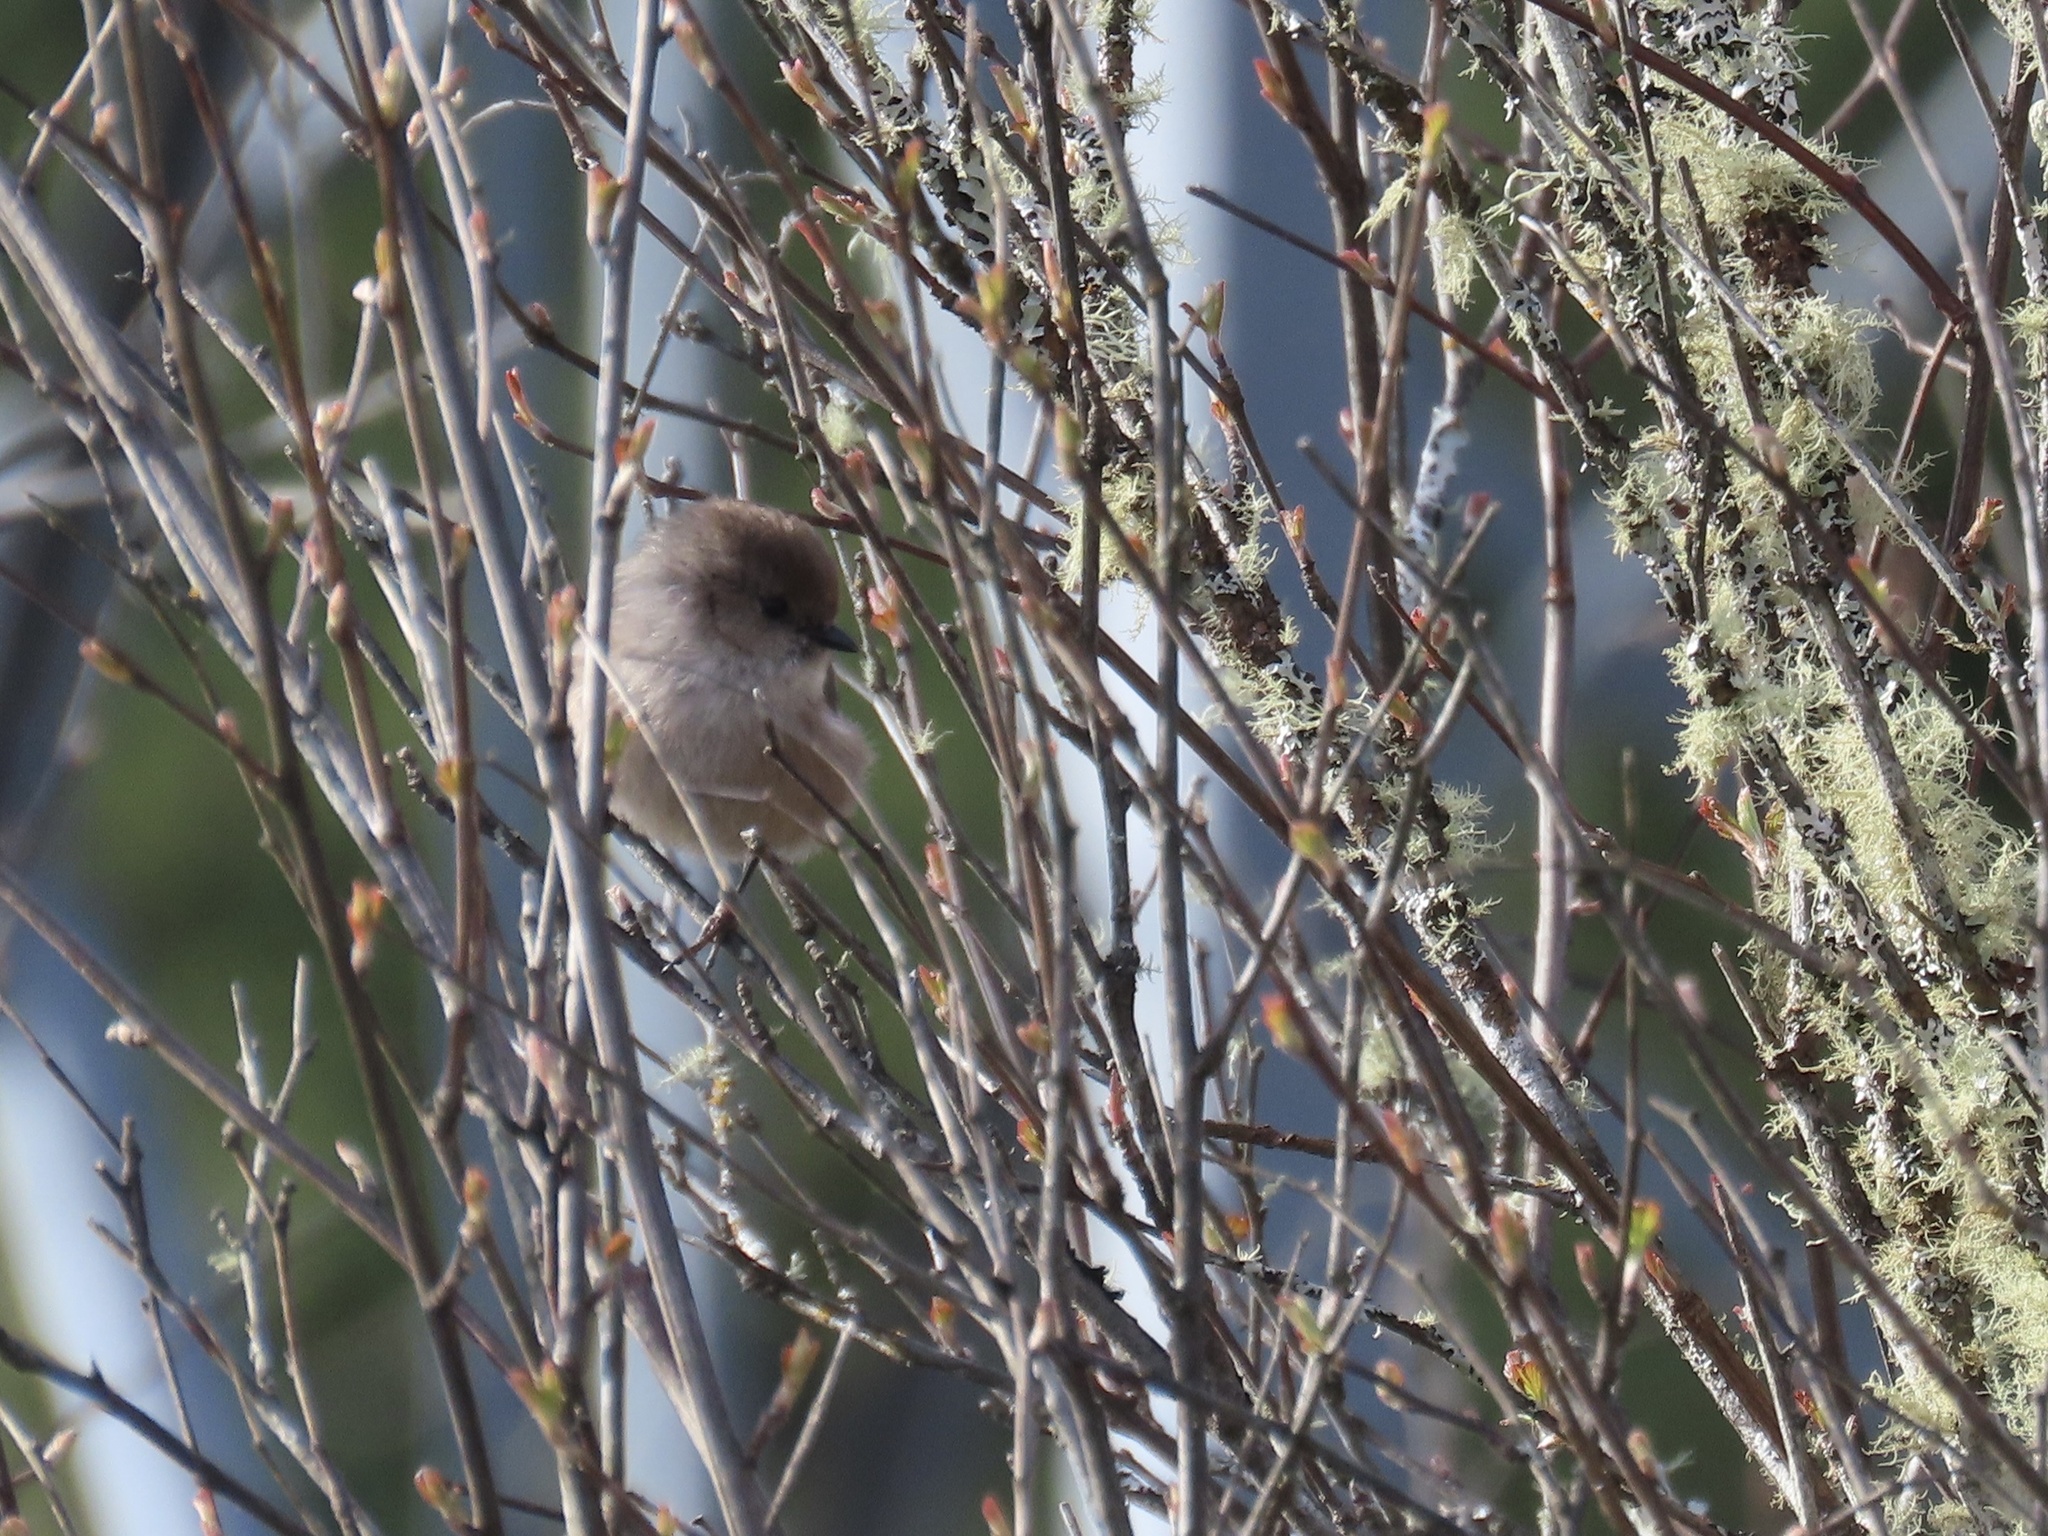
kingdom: Animalia
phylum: Chordata
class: Aves
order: Passeriformes
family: Aegithalidae
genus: Psaltriparus
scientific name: Psaltriparus minimus
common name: American bushtit
